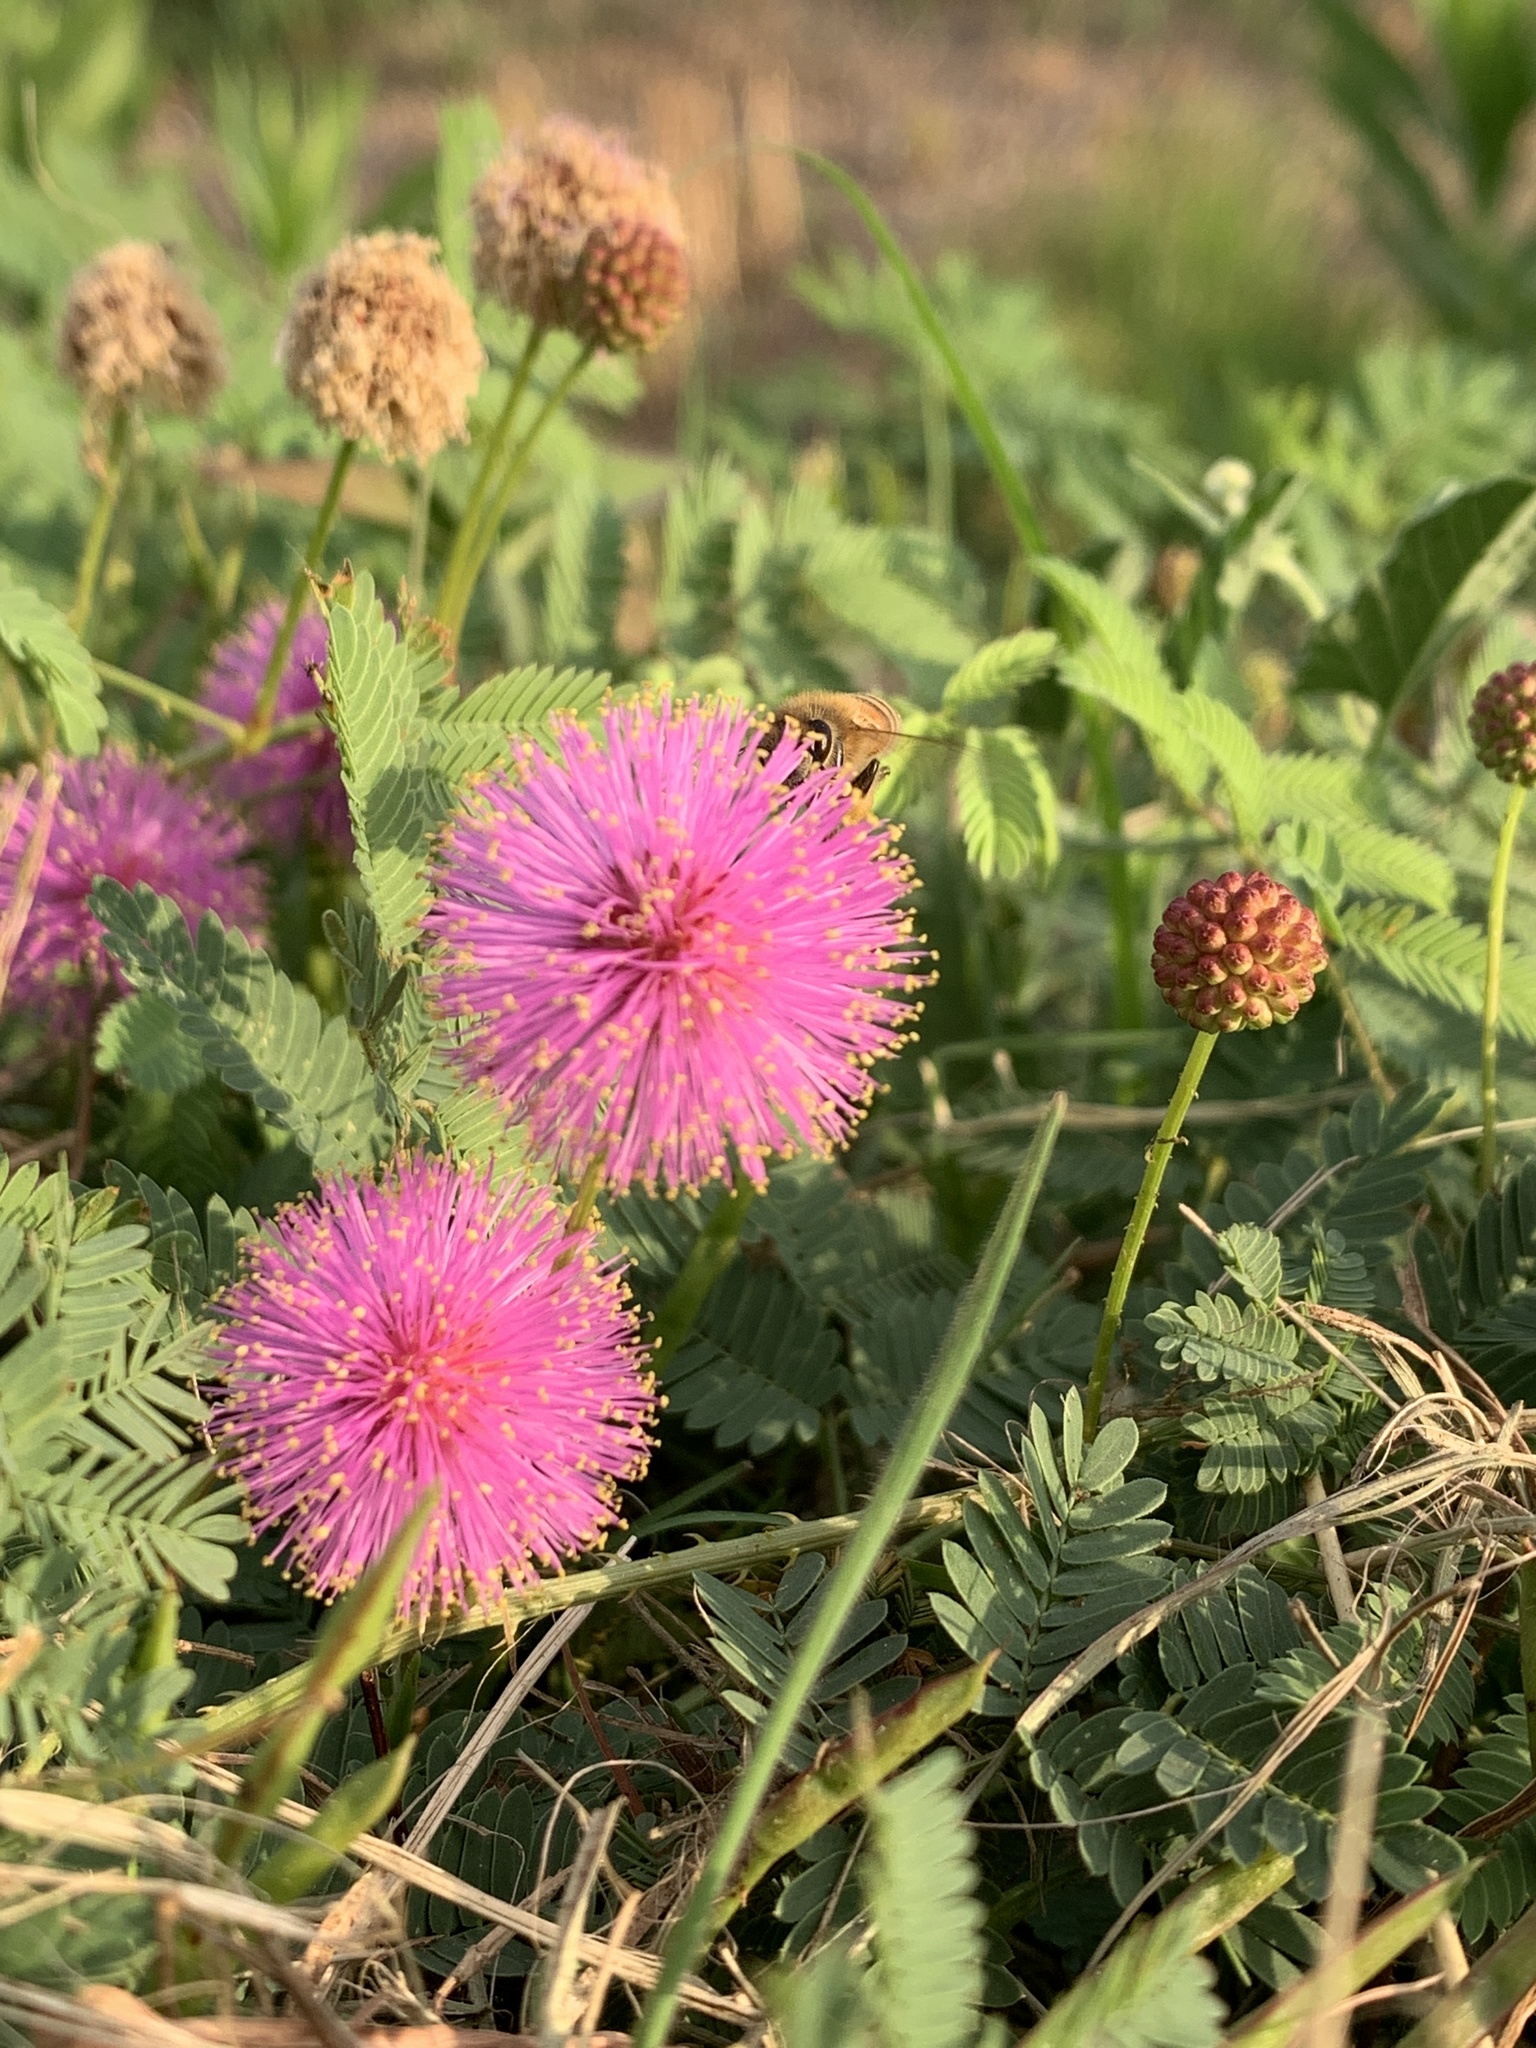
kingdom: Plantae
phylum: Tracheophyta
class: Magnoliopsida
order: Fabales
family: Fabaceae
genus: Mimosa
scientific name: Mimosa quadrivalvis
